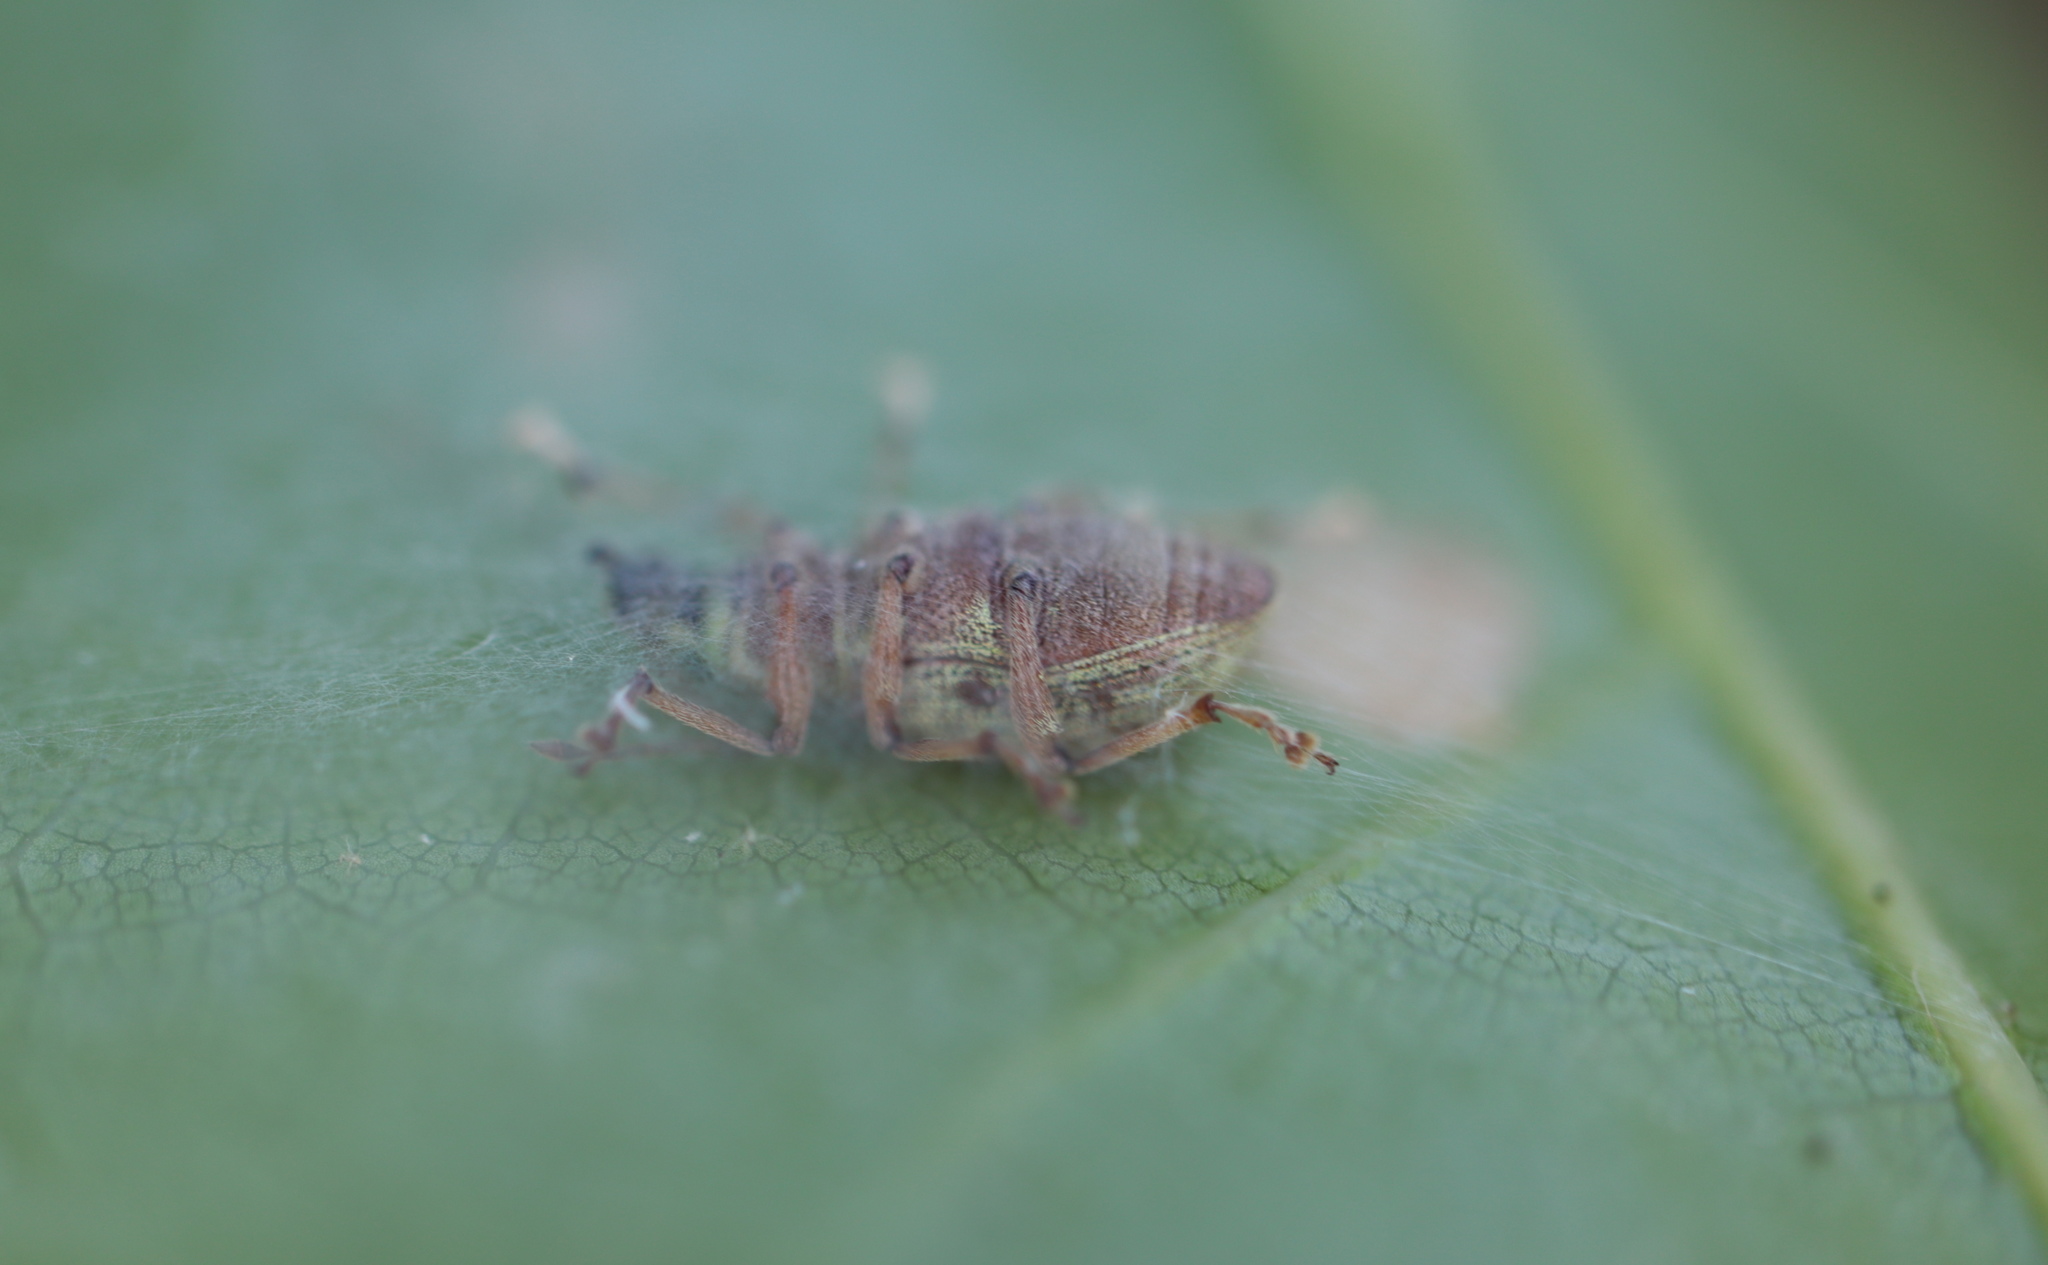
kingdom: Animalia
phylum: Arthropoda
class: Insecta
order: Coleoptera
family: Curculionidae
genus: Cyrtepistomus
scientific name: Cyrtepistomus castaneus
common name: Weevil
